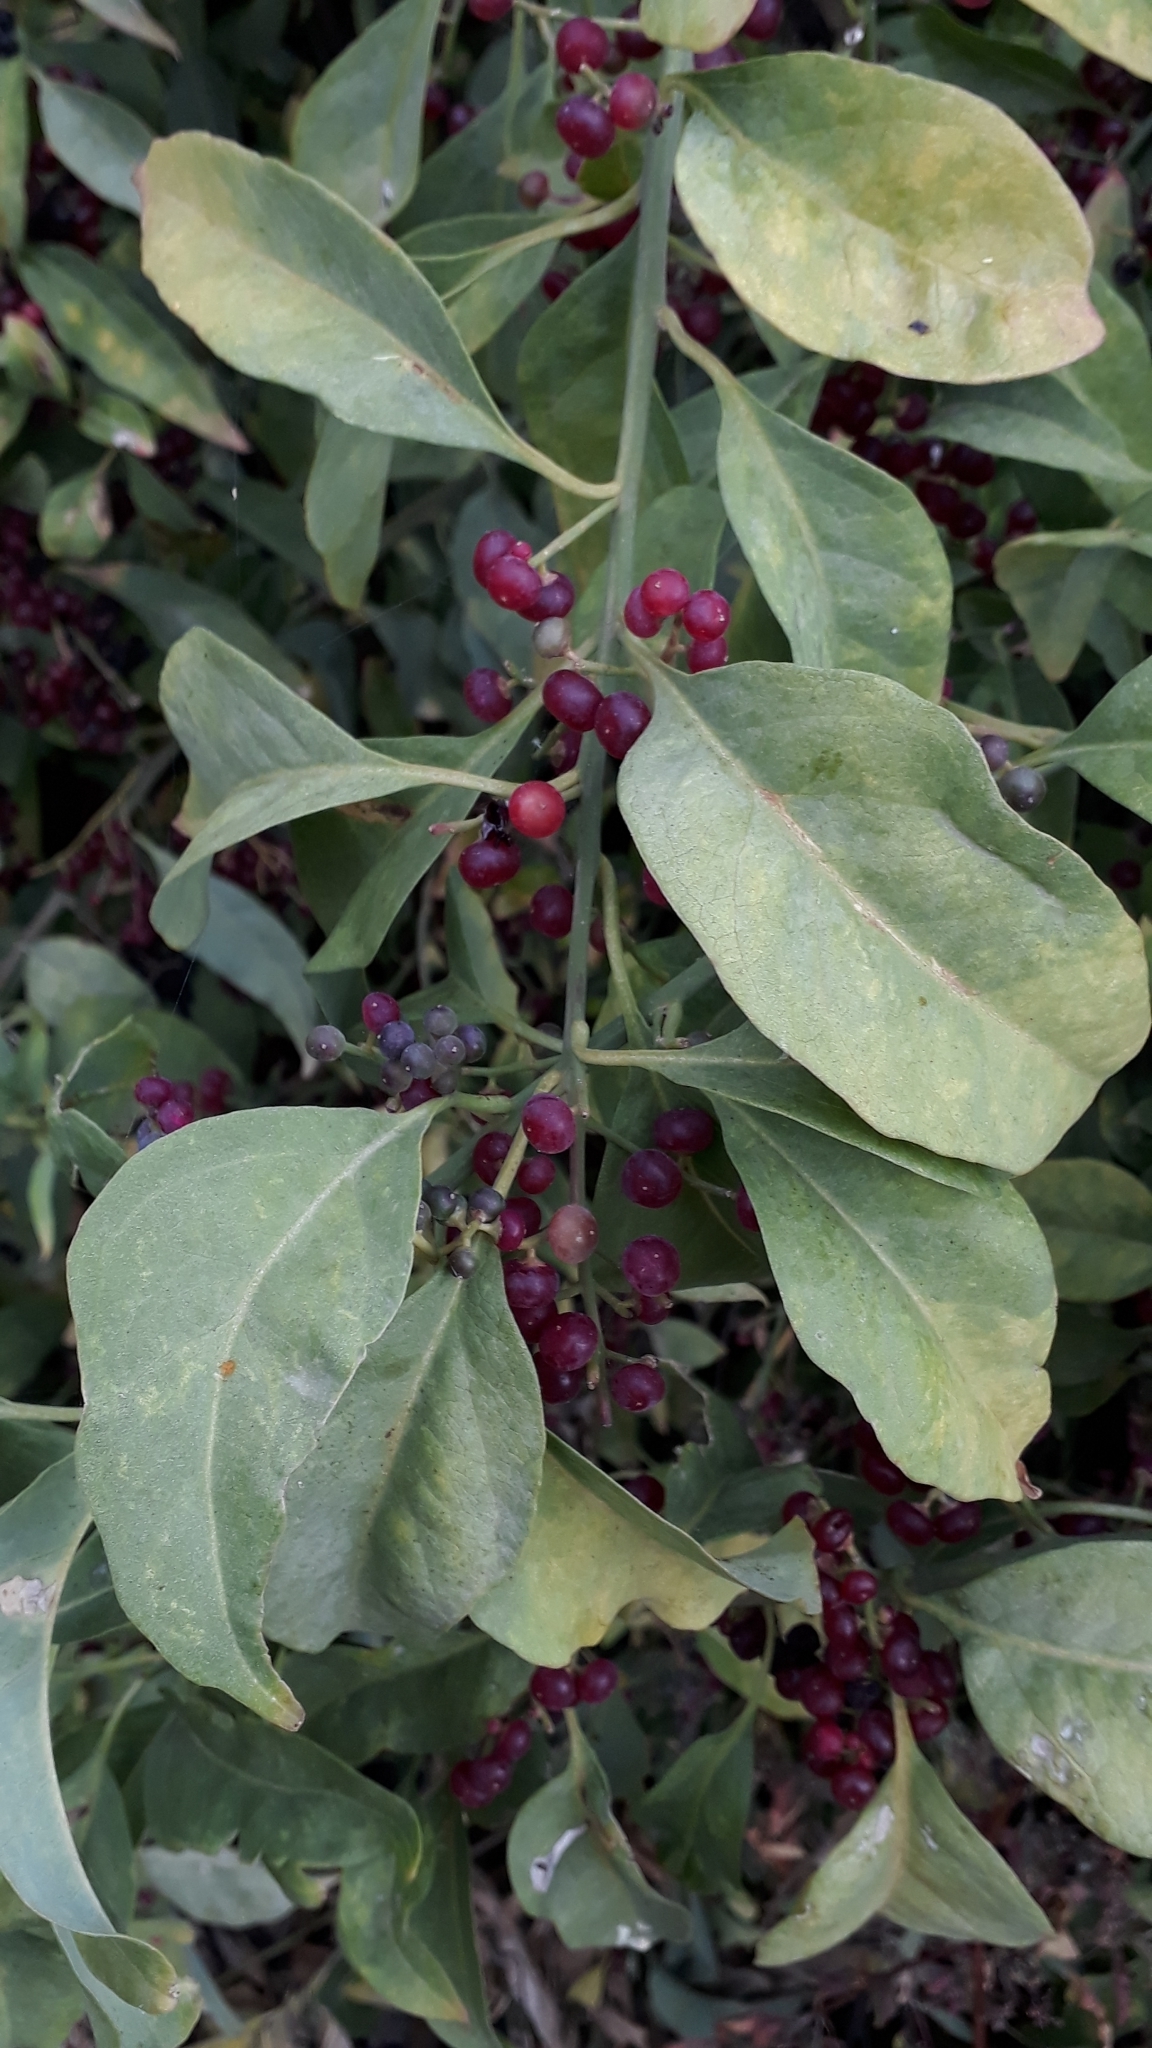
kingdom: Plantae
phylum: Tracheophyta
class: Magnoliopsida
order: Caryophyllales
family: Amaranthaceae
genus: Bosea
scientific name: Bosea yervamora
